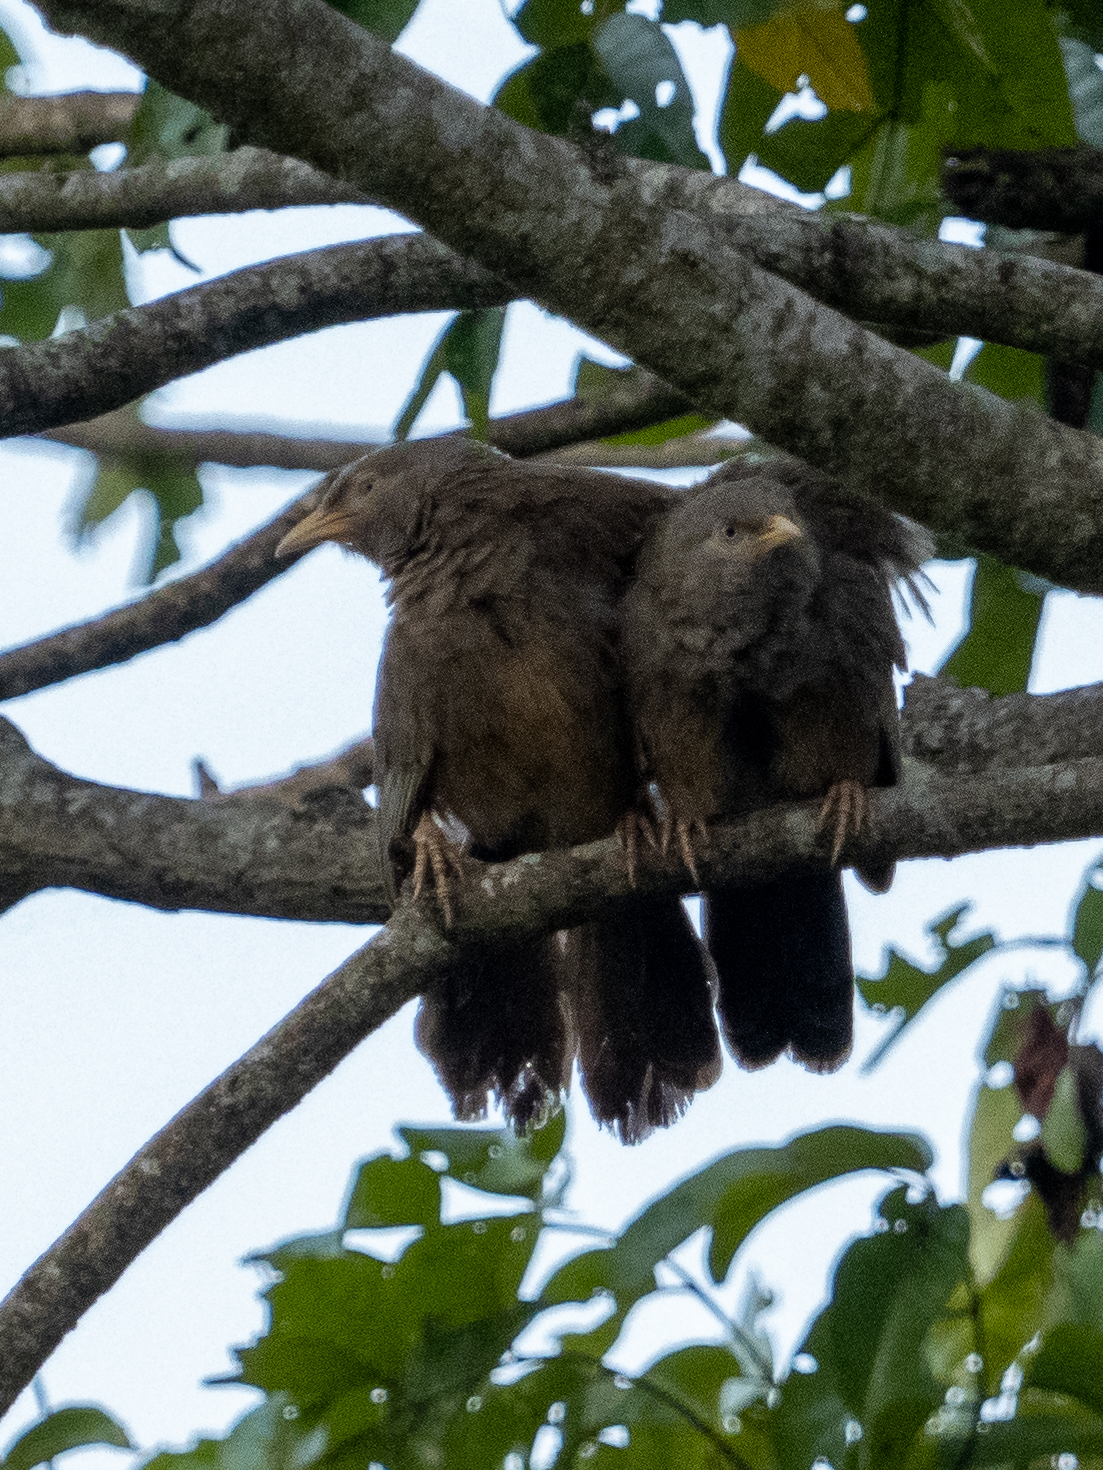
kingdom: Animalia
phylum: Chordata
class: Aves
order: Passeriformes
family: Leiothrichidae
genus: Turdoides
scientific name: Turdoides affinis
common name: Yellow-billed babbler
